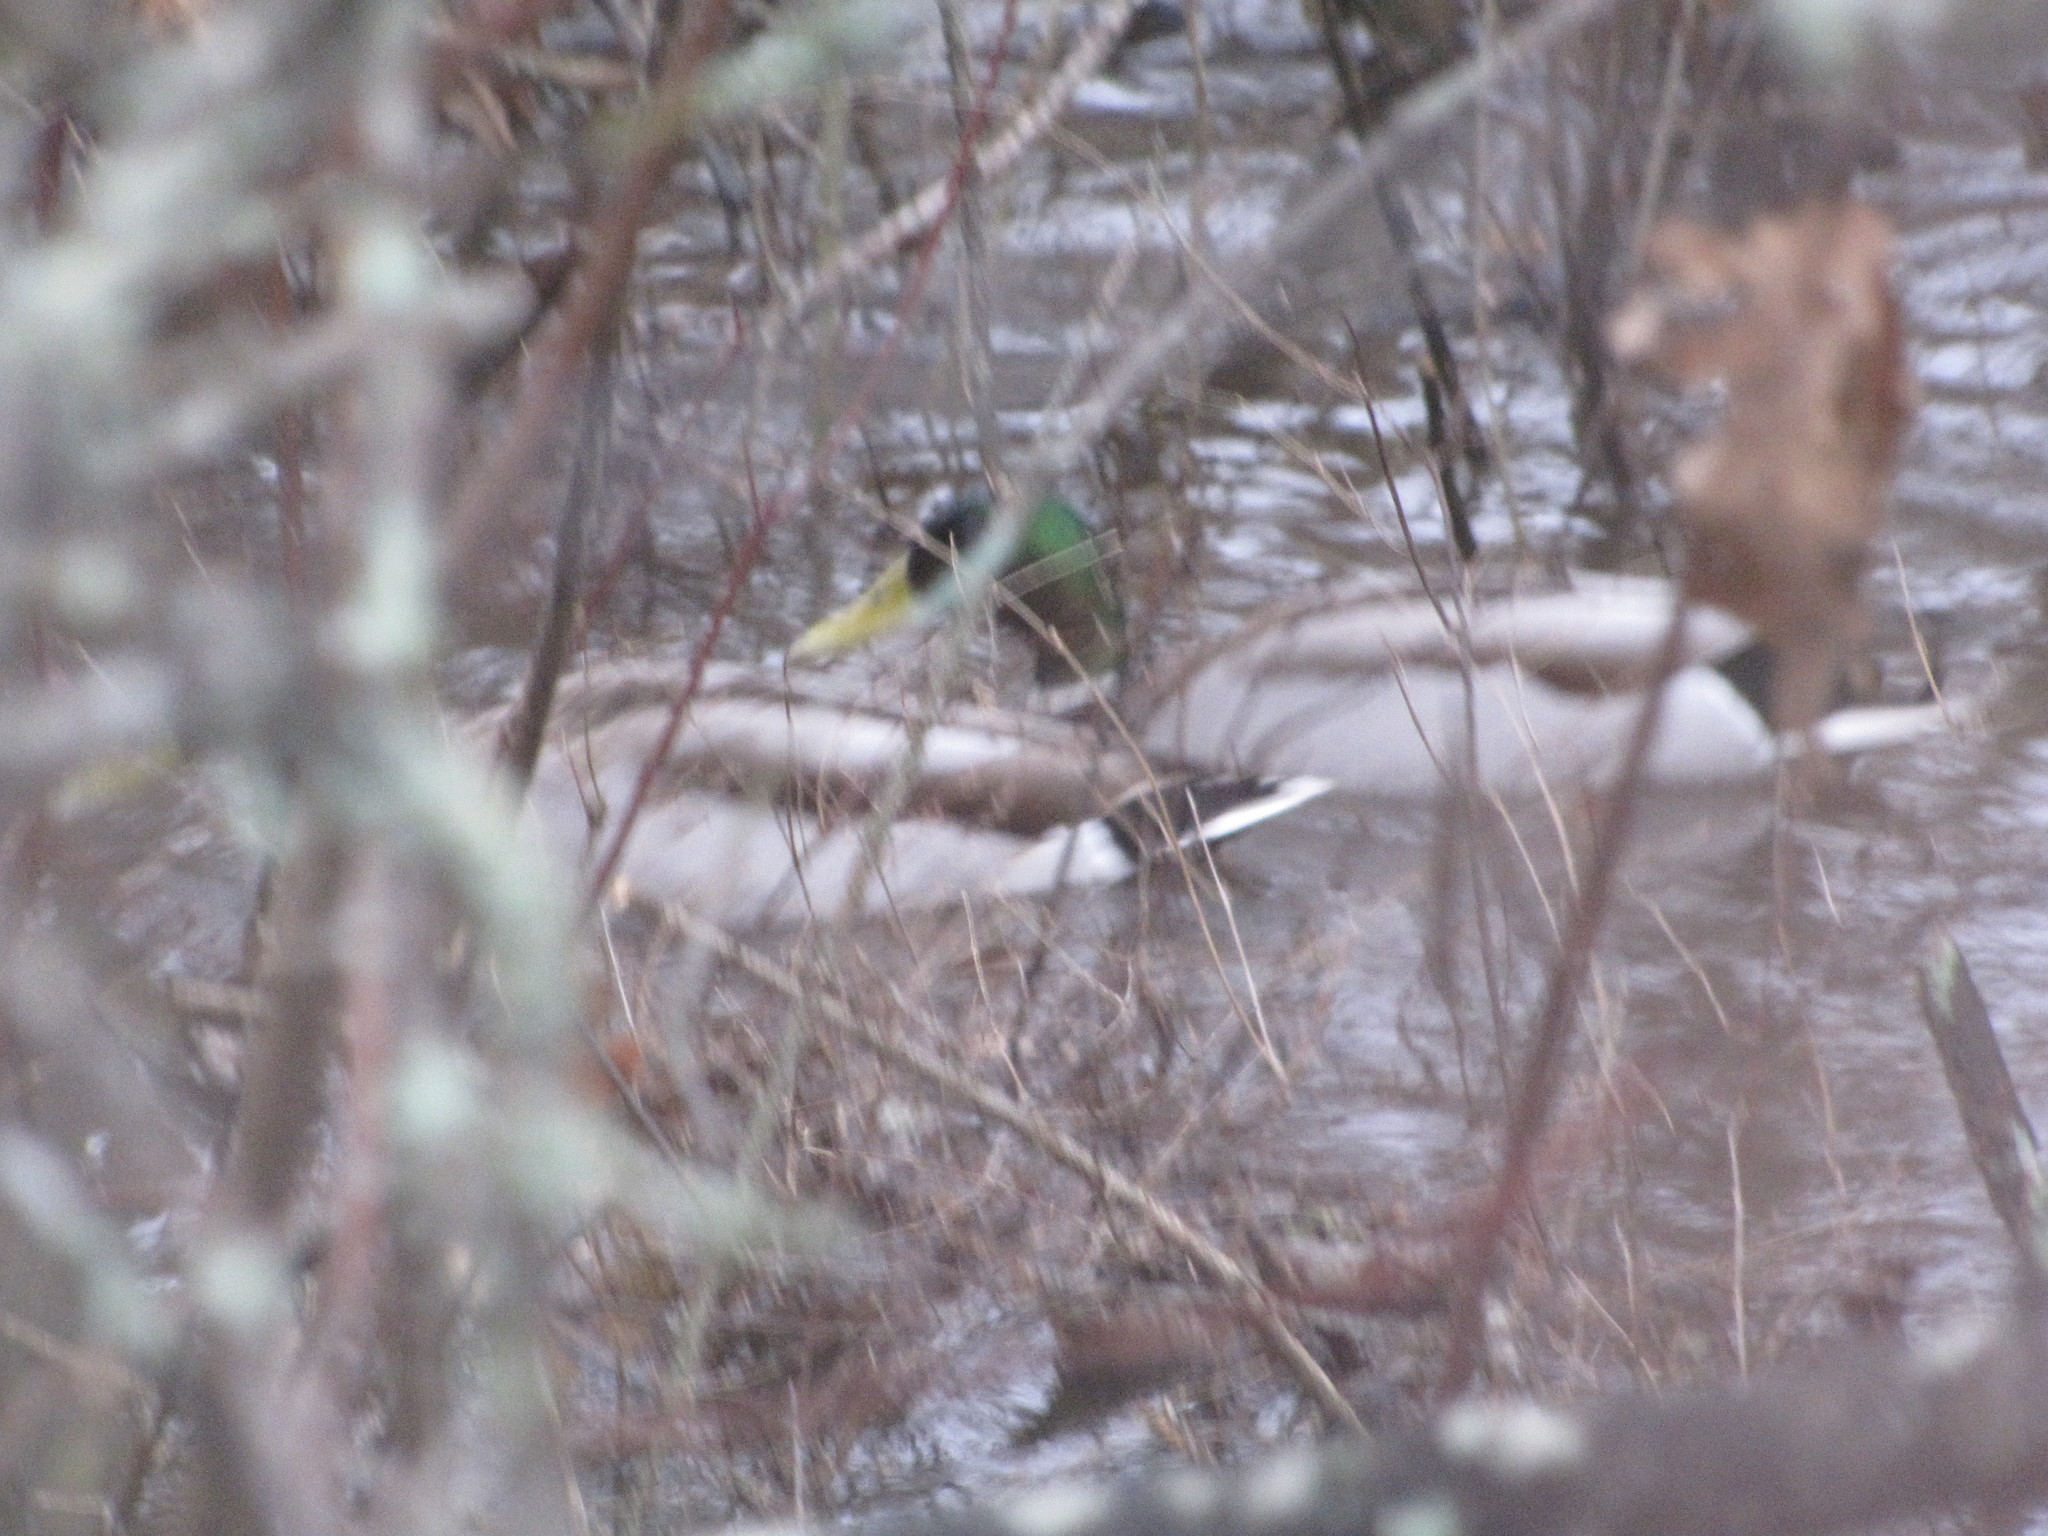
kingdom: Animalia
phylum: Chordata
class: Aves
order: Anseriformes
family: Anatidae
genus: Anas
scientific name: Anas platyrhynchos
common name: Mallard
